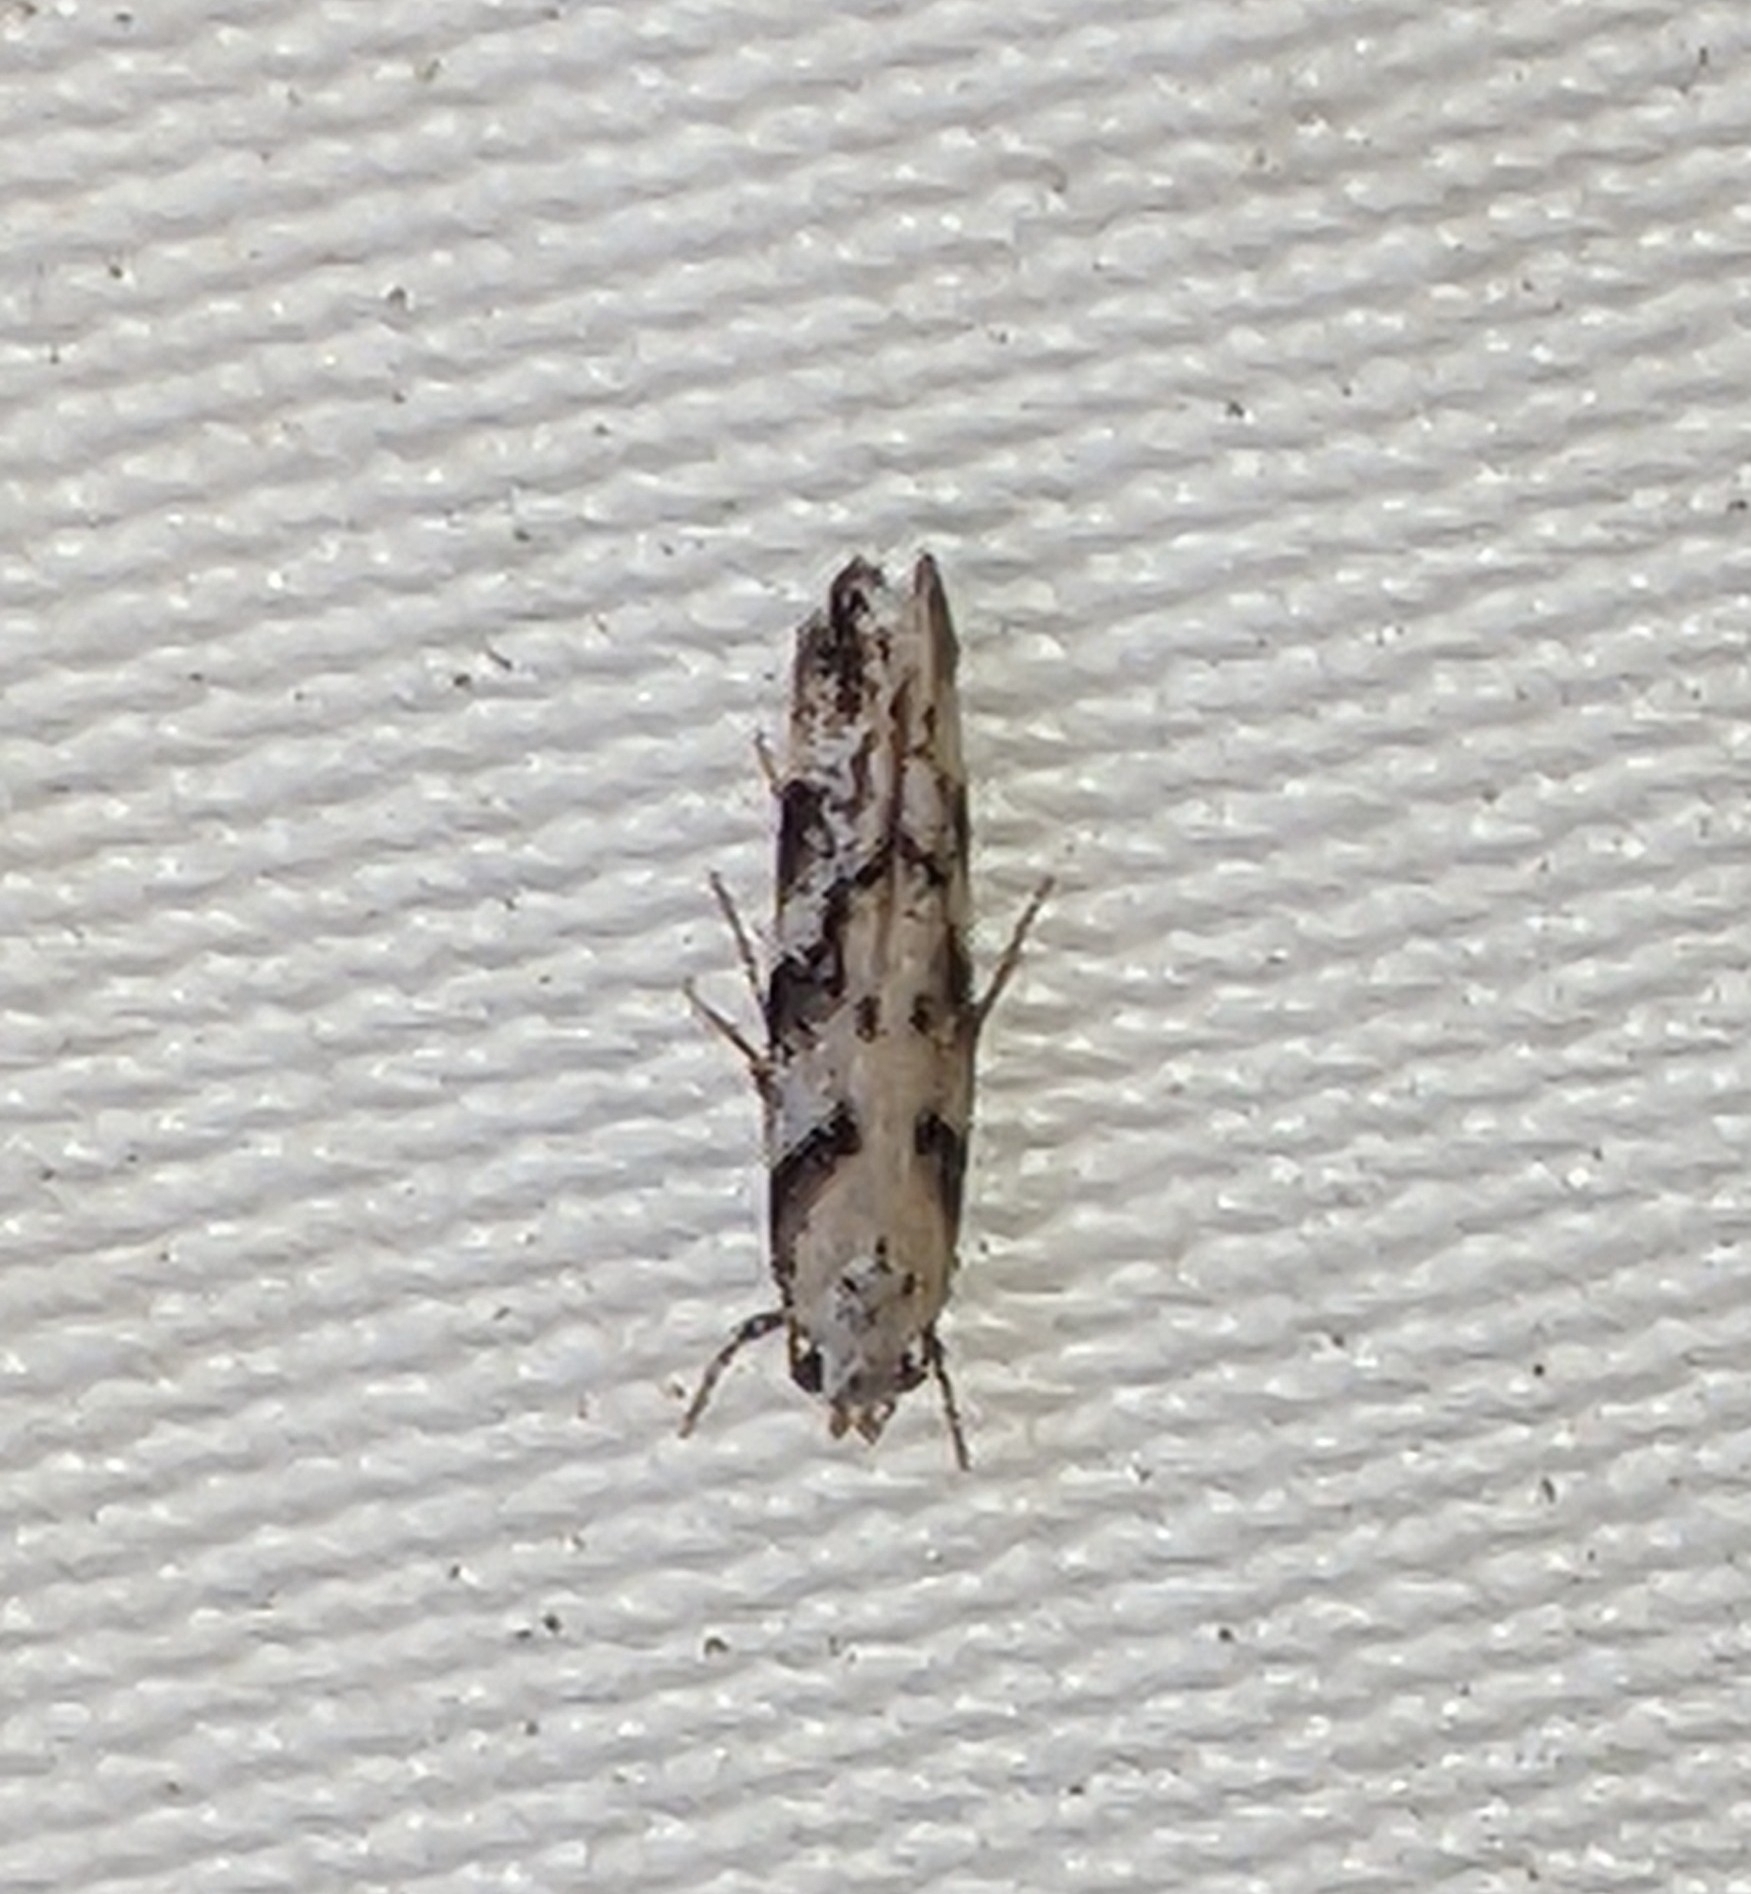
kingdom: Animalia
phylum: Arthropoda
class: Insecta
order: Lepidoptera
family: Gelechiidae
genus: Coleotechnites
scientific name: Coleotechnites atrupictella
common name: Spruce micromoth
